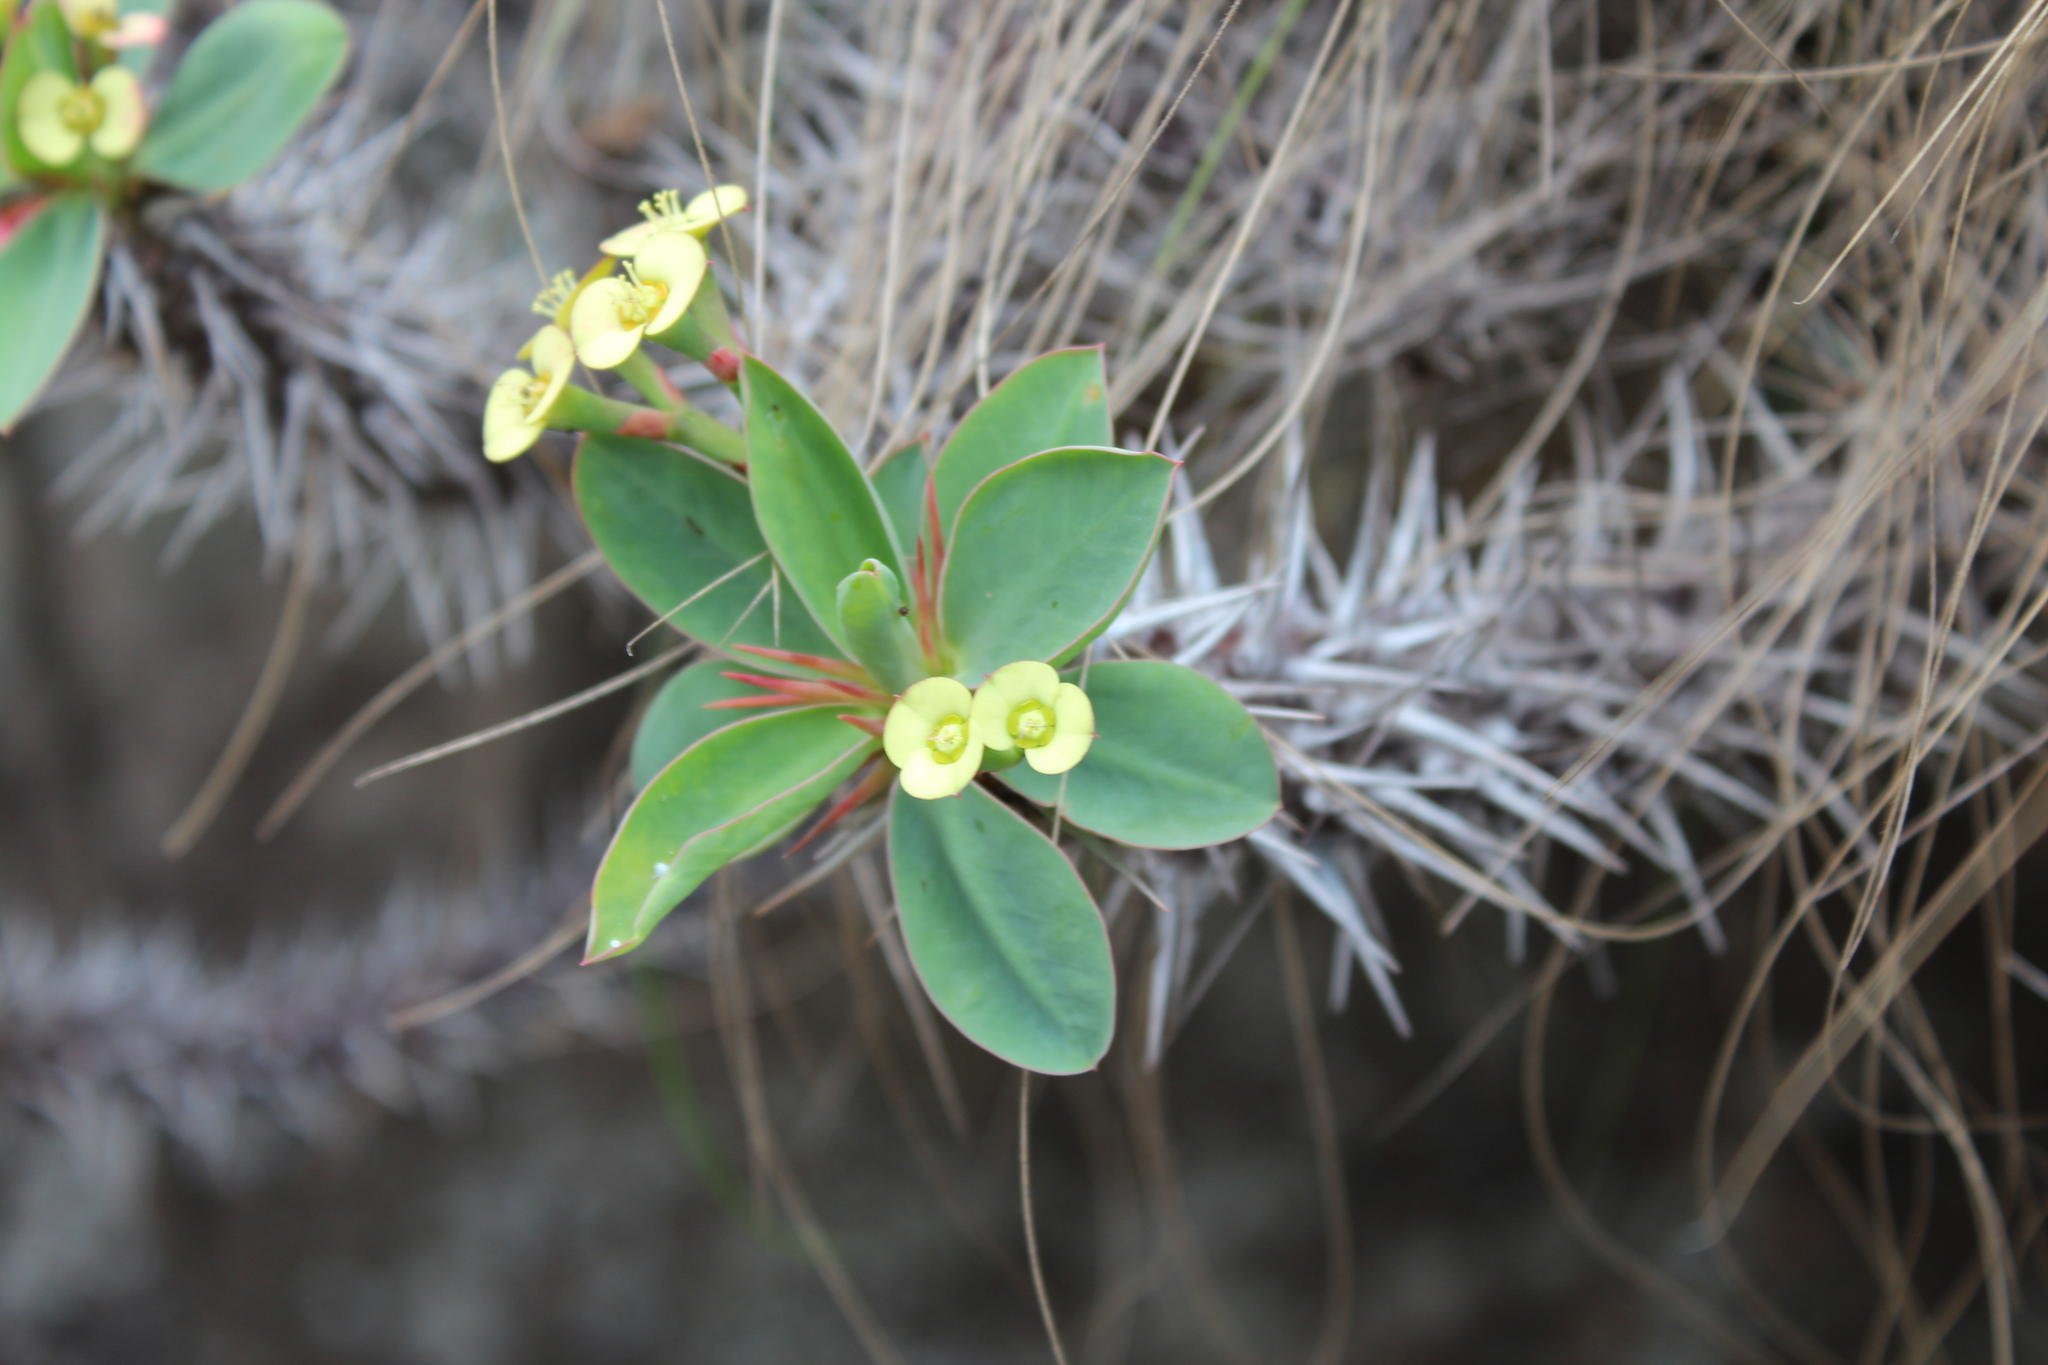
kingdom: Plantae
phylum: Tracheophyta
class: Magnoliopsida
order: Malpighiales
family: Euphorbiaceae
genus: Euphorbia
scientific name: Euphorbia fianarantsoae
